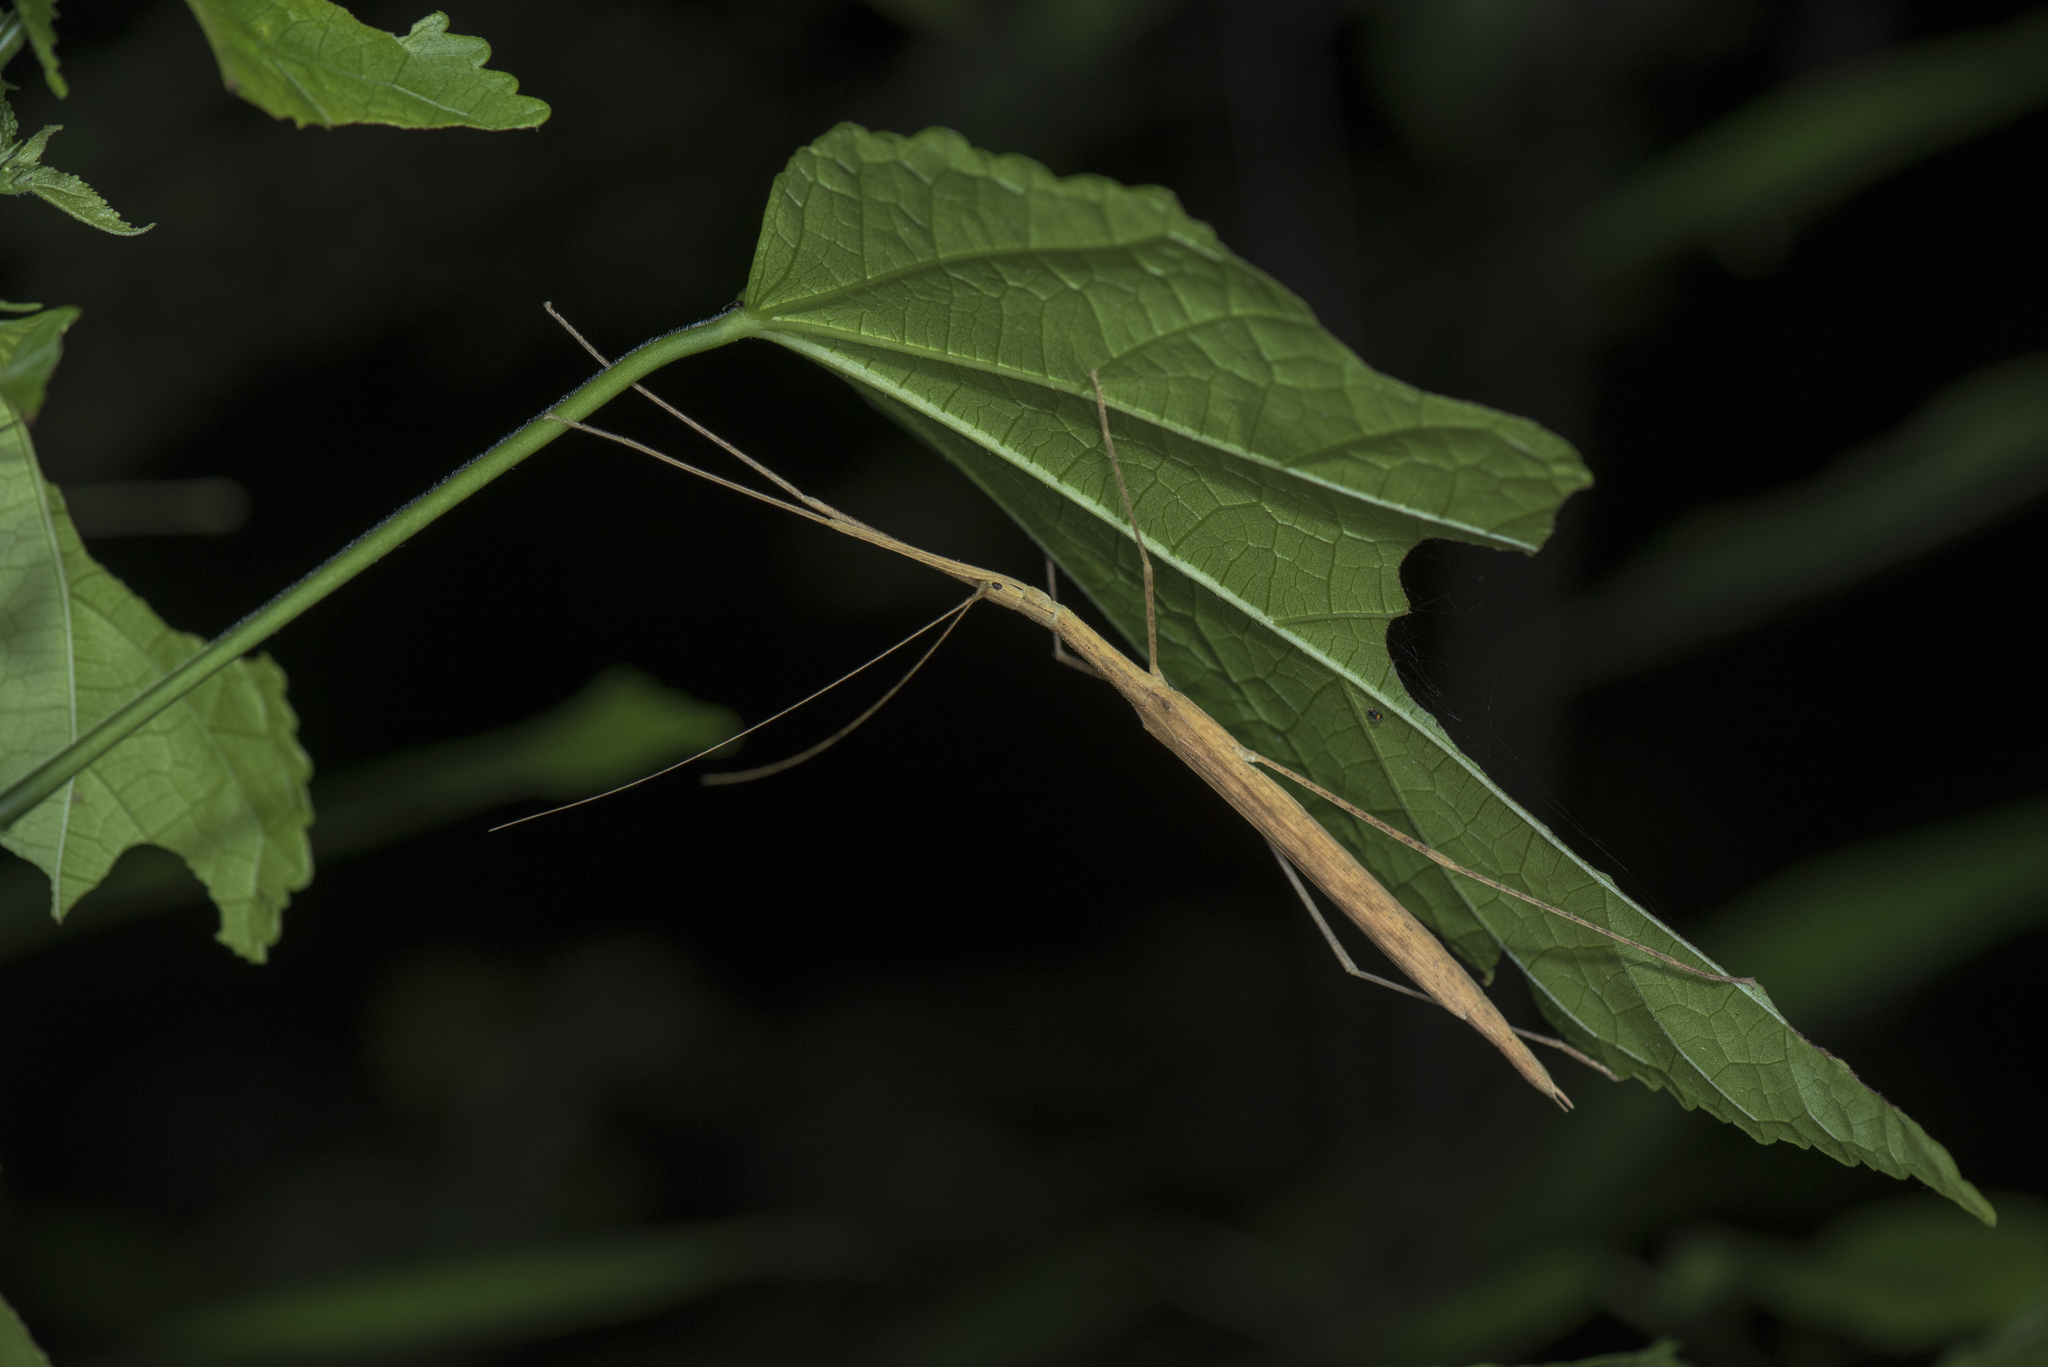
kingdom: Animalia
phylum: Arthropoda
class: Insecta
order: Phasmida
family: Lonchodidae
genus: Sipyloidea
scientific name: Sipyloidea sipylus
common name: Madagascan stick insect
